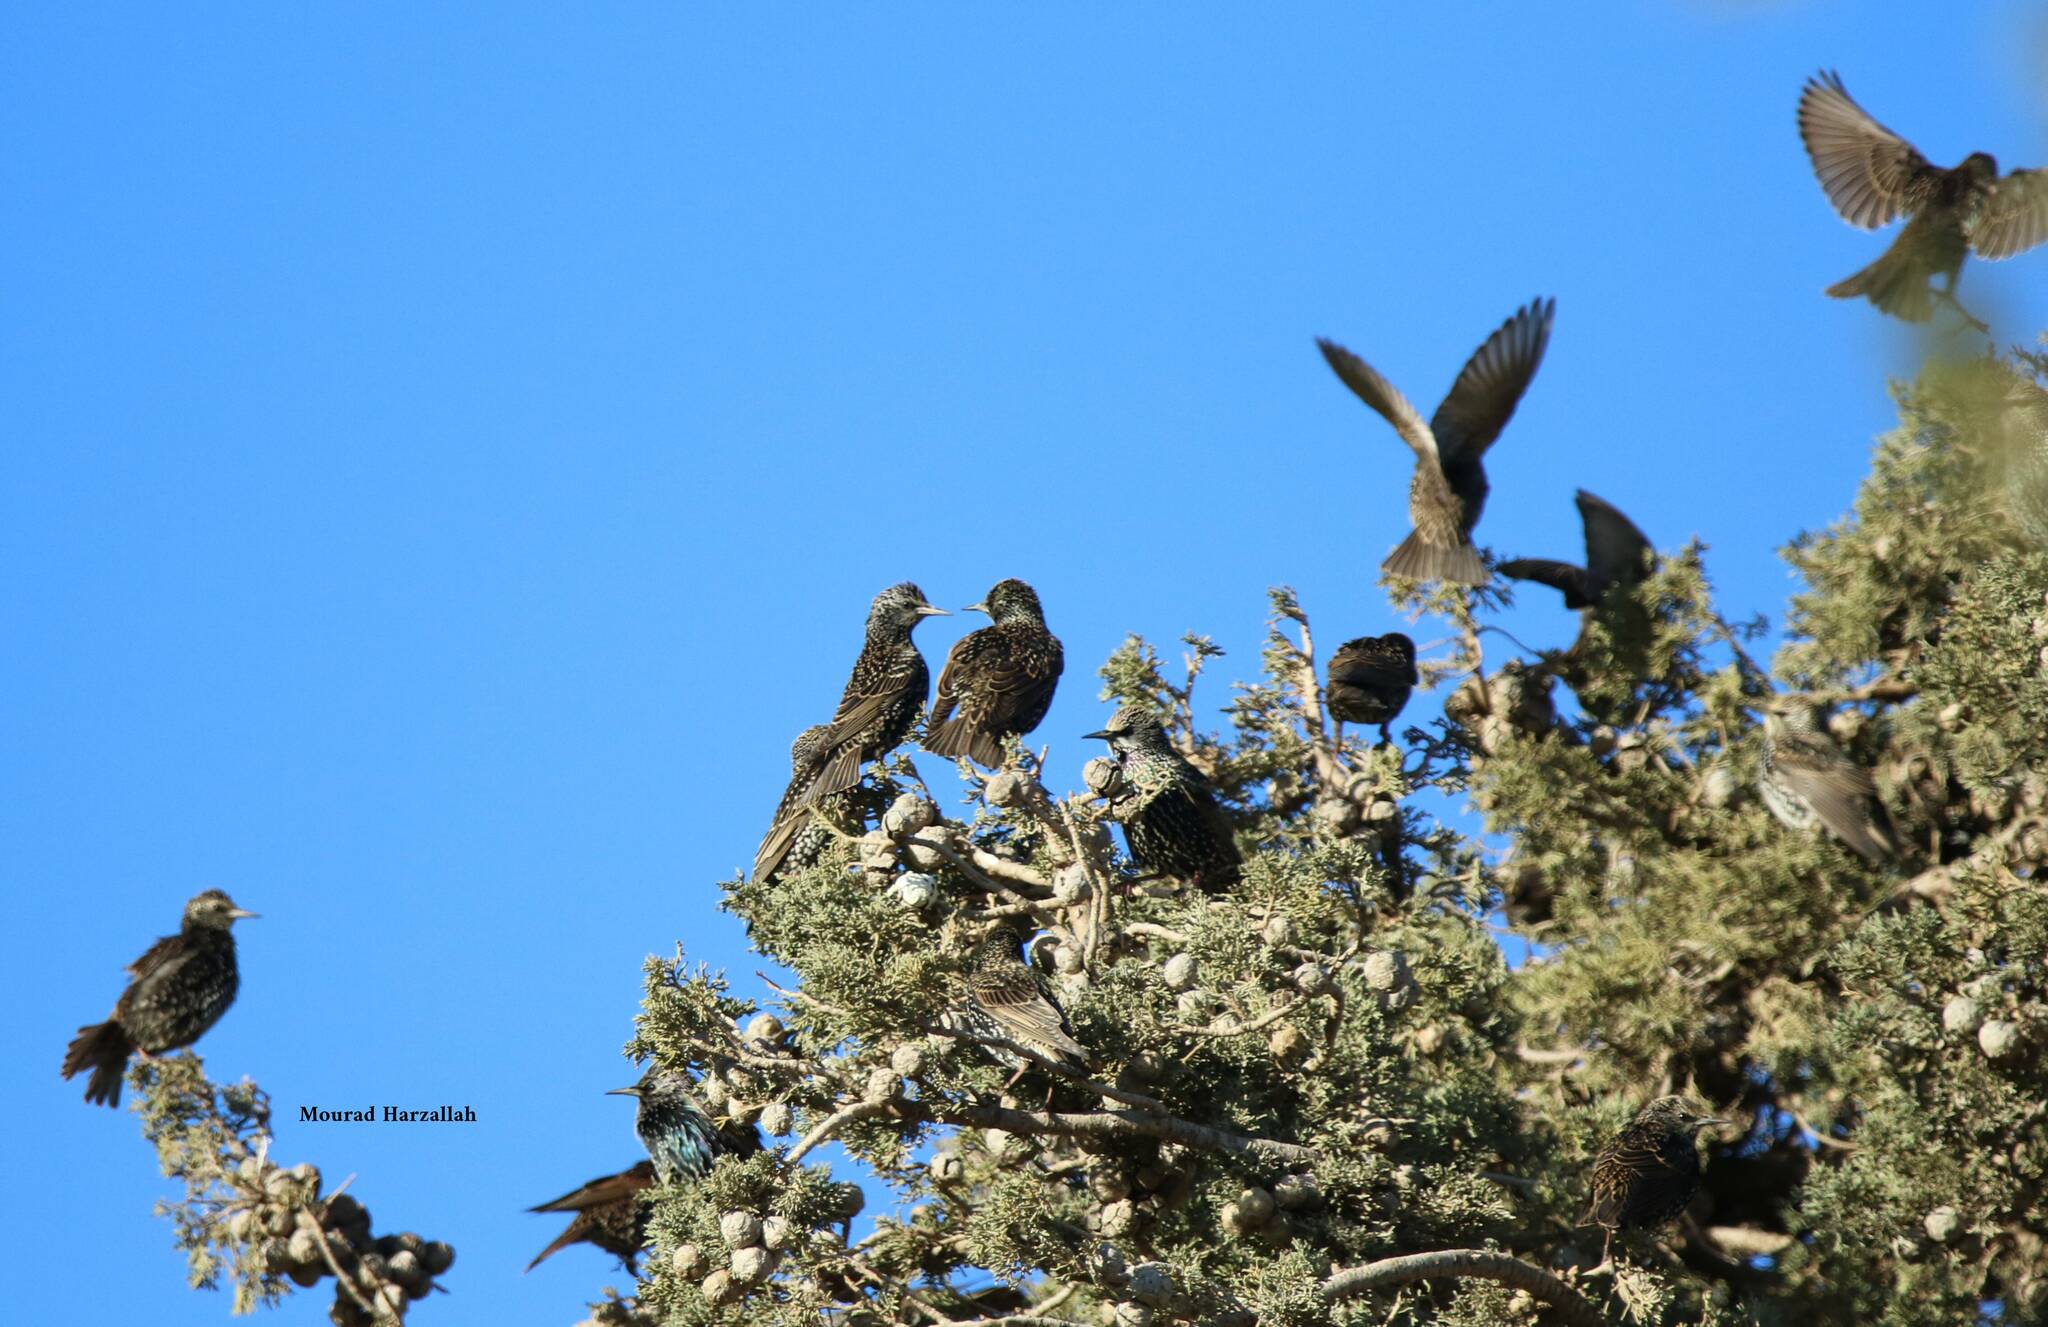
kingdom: Animalia
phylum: Chordata
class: Aves
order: Passeriformes
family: Sturnidae
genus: Sturnus
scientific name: Sturnus vulgaris
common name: Common starling
